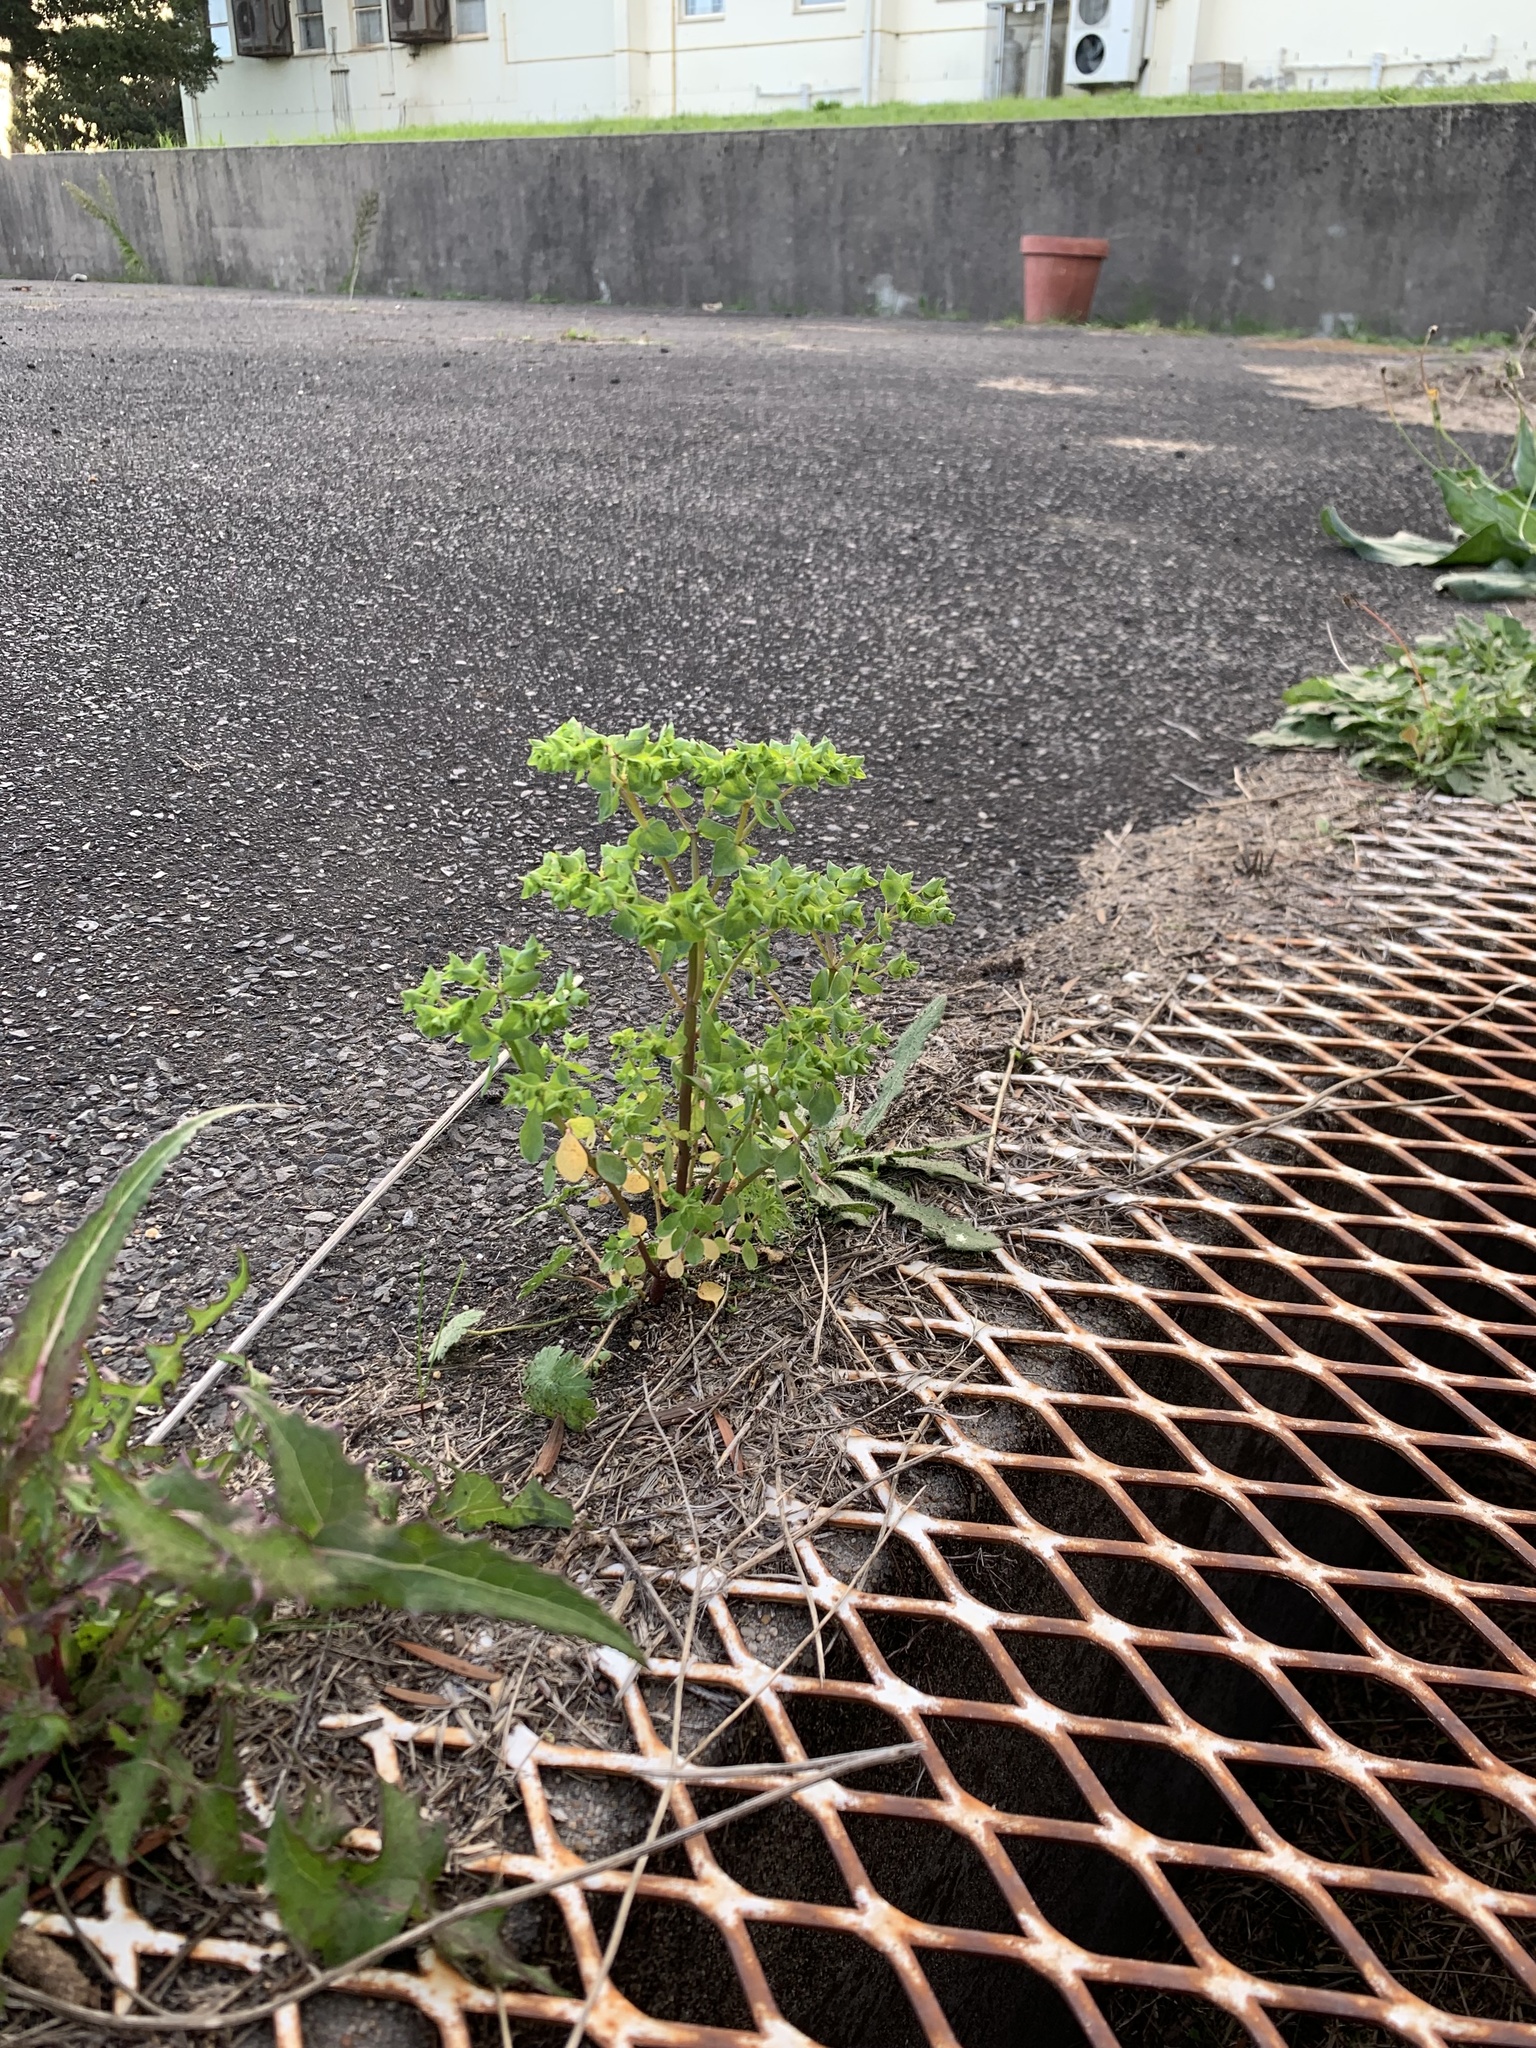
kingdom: Plantae
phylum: Tracheophyta
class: Magnoliopsida
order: Malpighiales
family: Euphorbiaceae
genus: Euphorbia
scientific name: Euphorbia peplus
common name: Petty spurge
